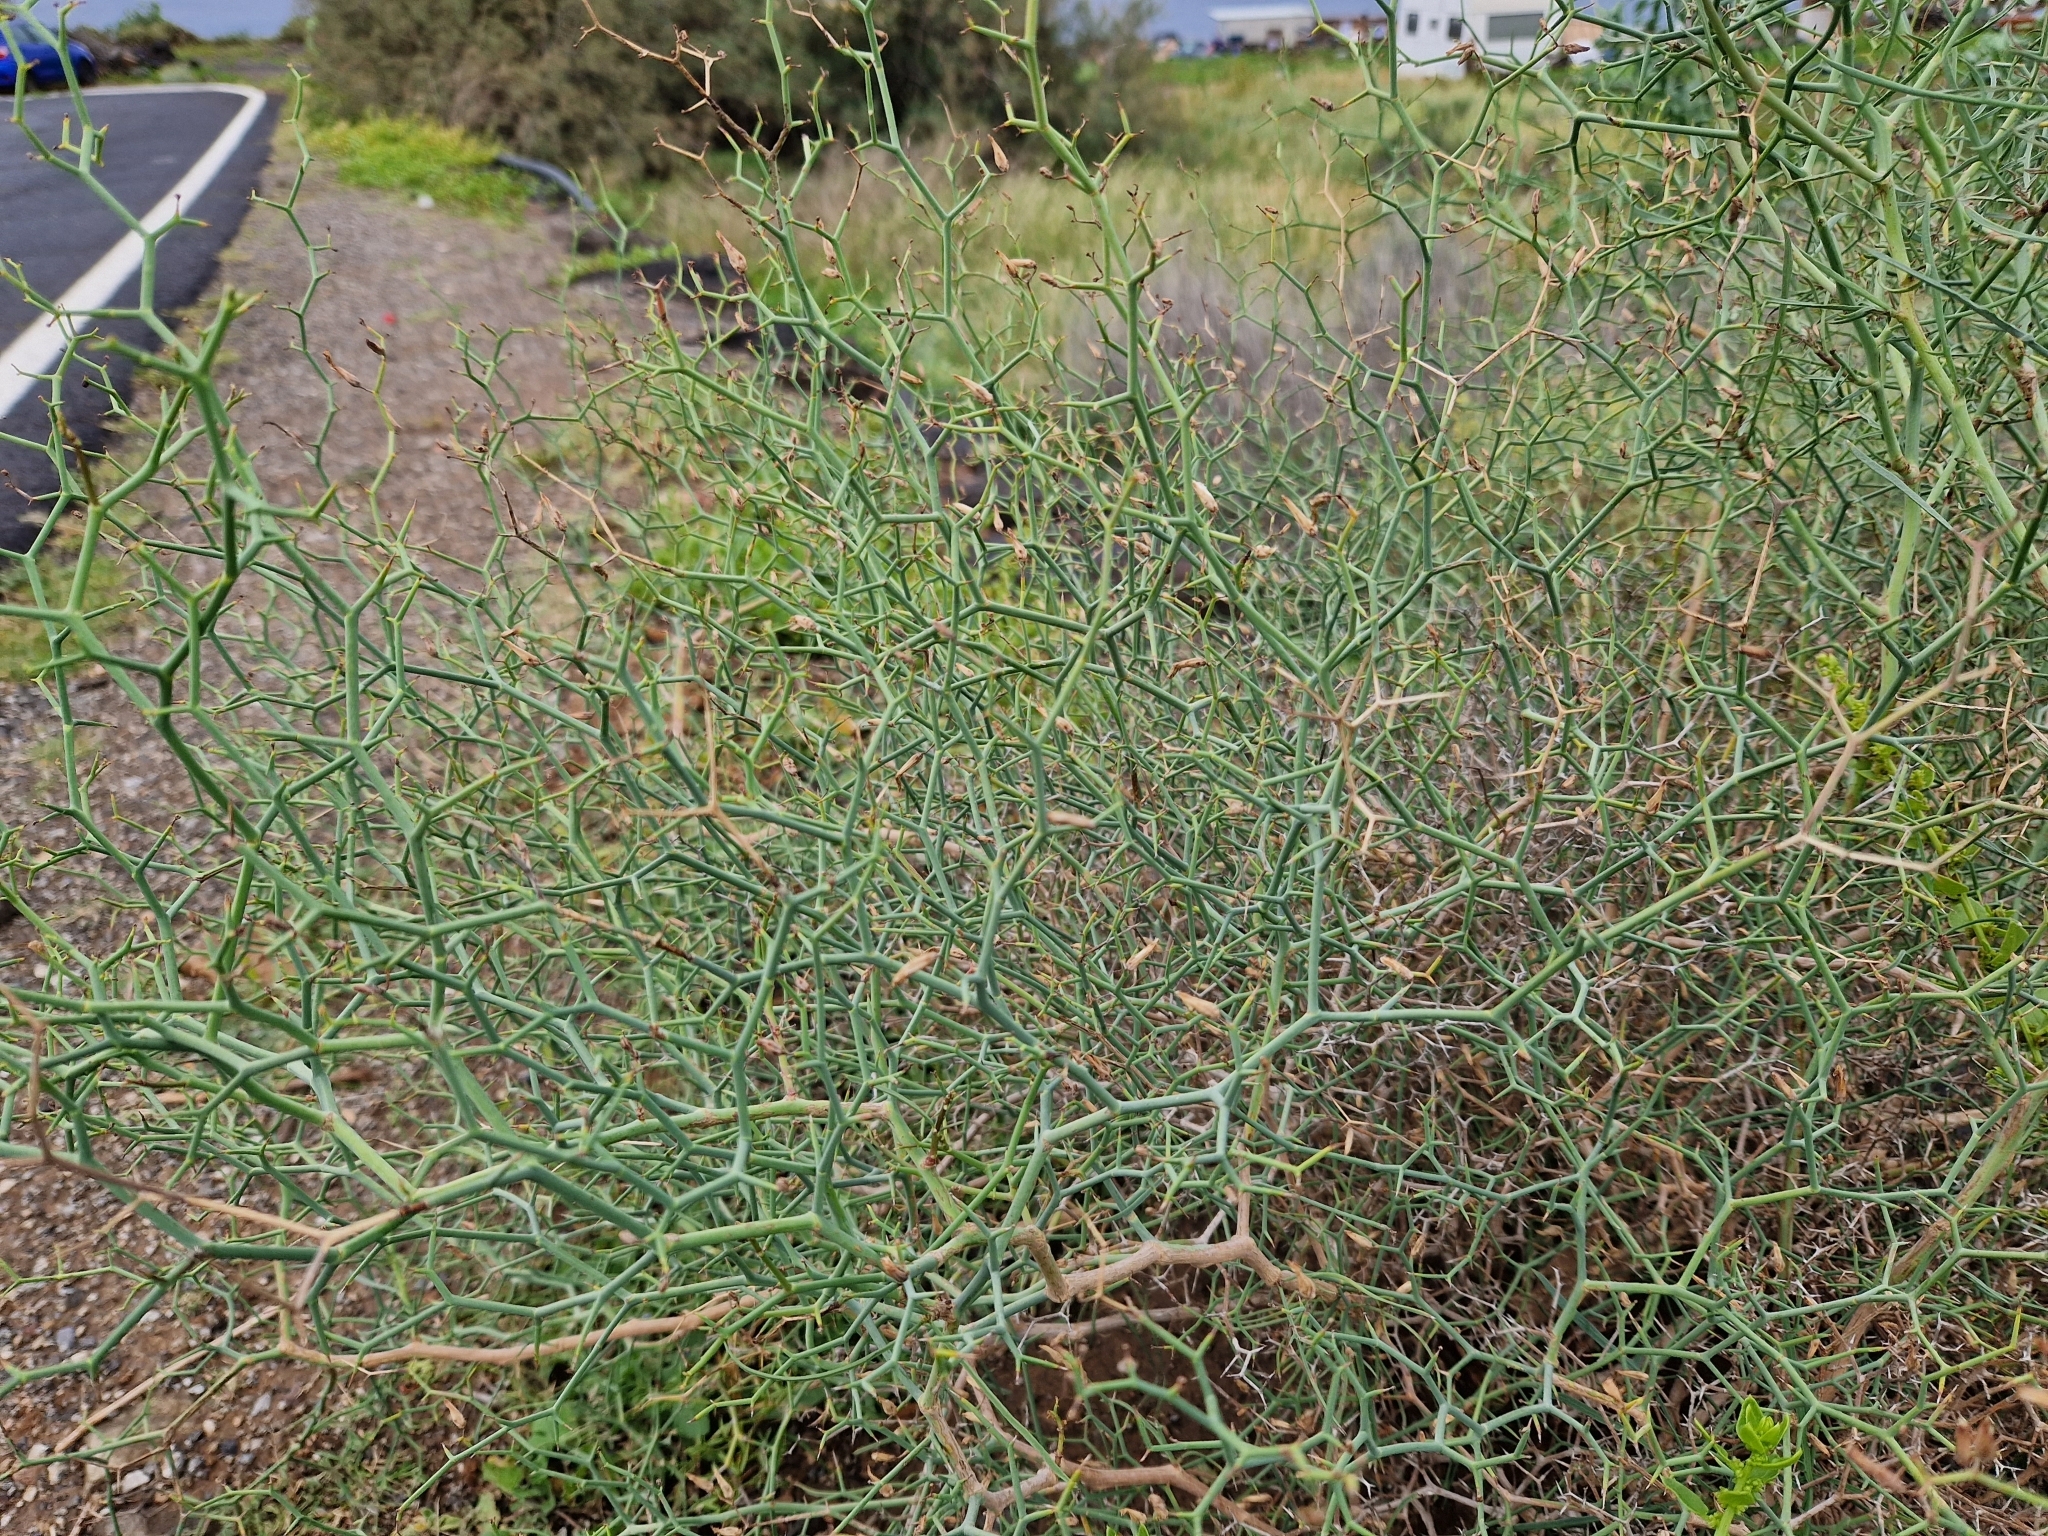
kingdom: Plantae
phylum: Tracheophyta
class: Magnoliopsida
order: Asterales
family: Asteraceae
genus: Launaea
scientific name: Launaea arborescens
